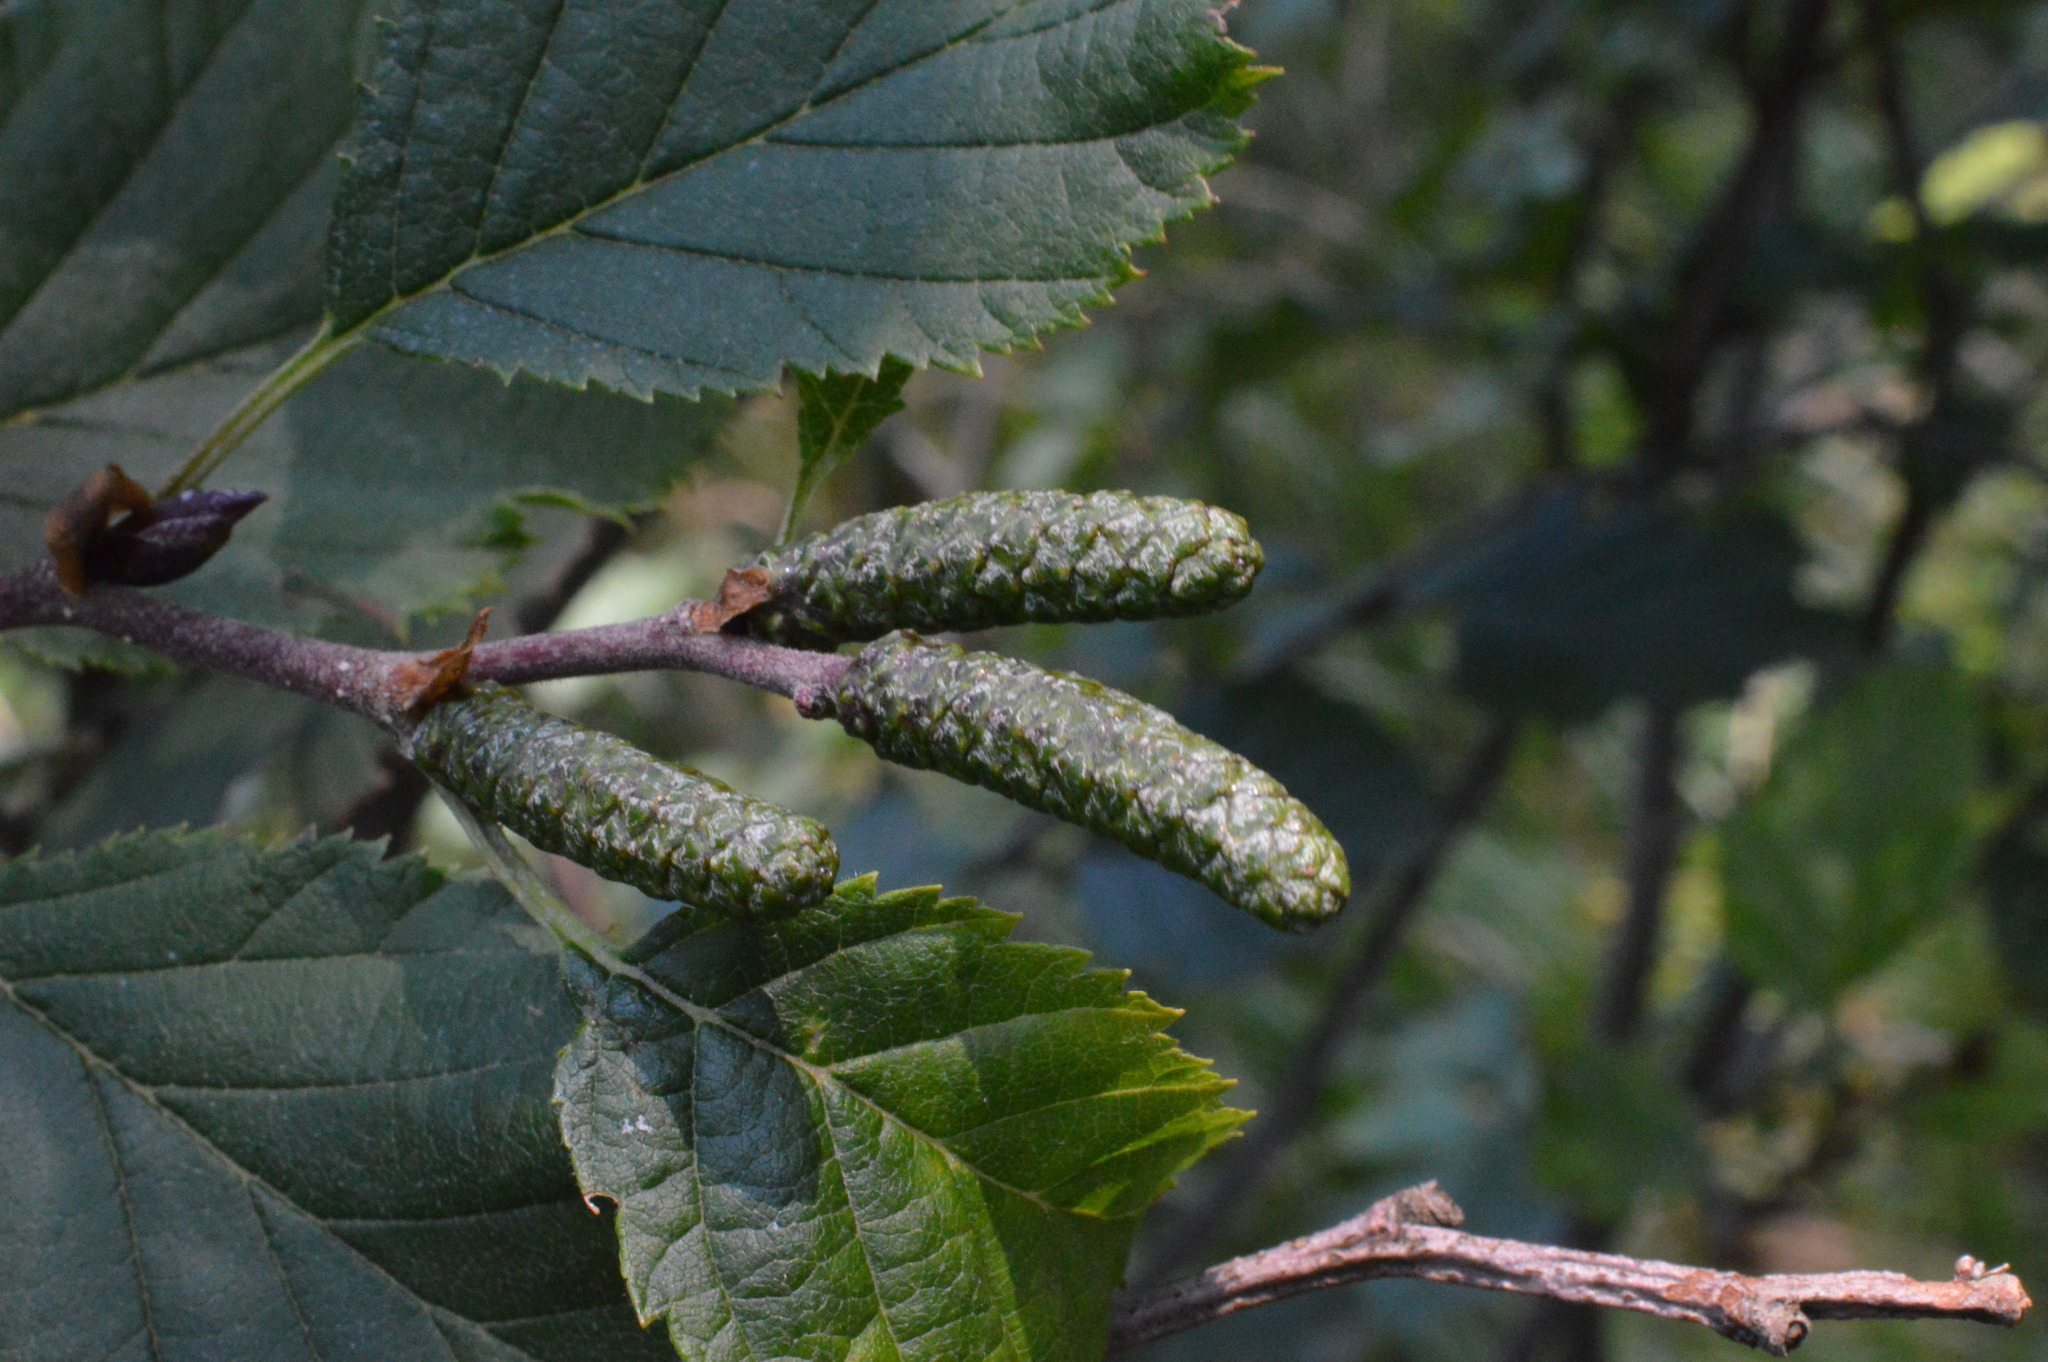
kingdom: Plantae
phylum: Tracheophyta
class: Magnoliopsida
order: Fagales
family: Betulaceae
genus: Alnus
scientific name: Alnus alnobetula
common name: Green alder
